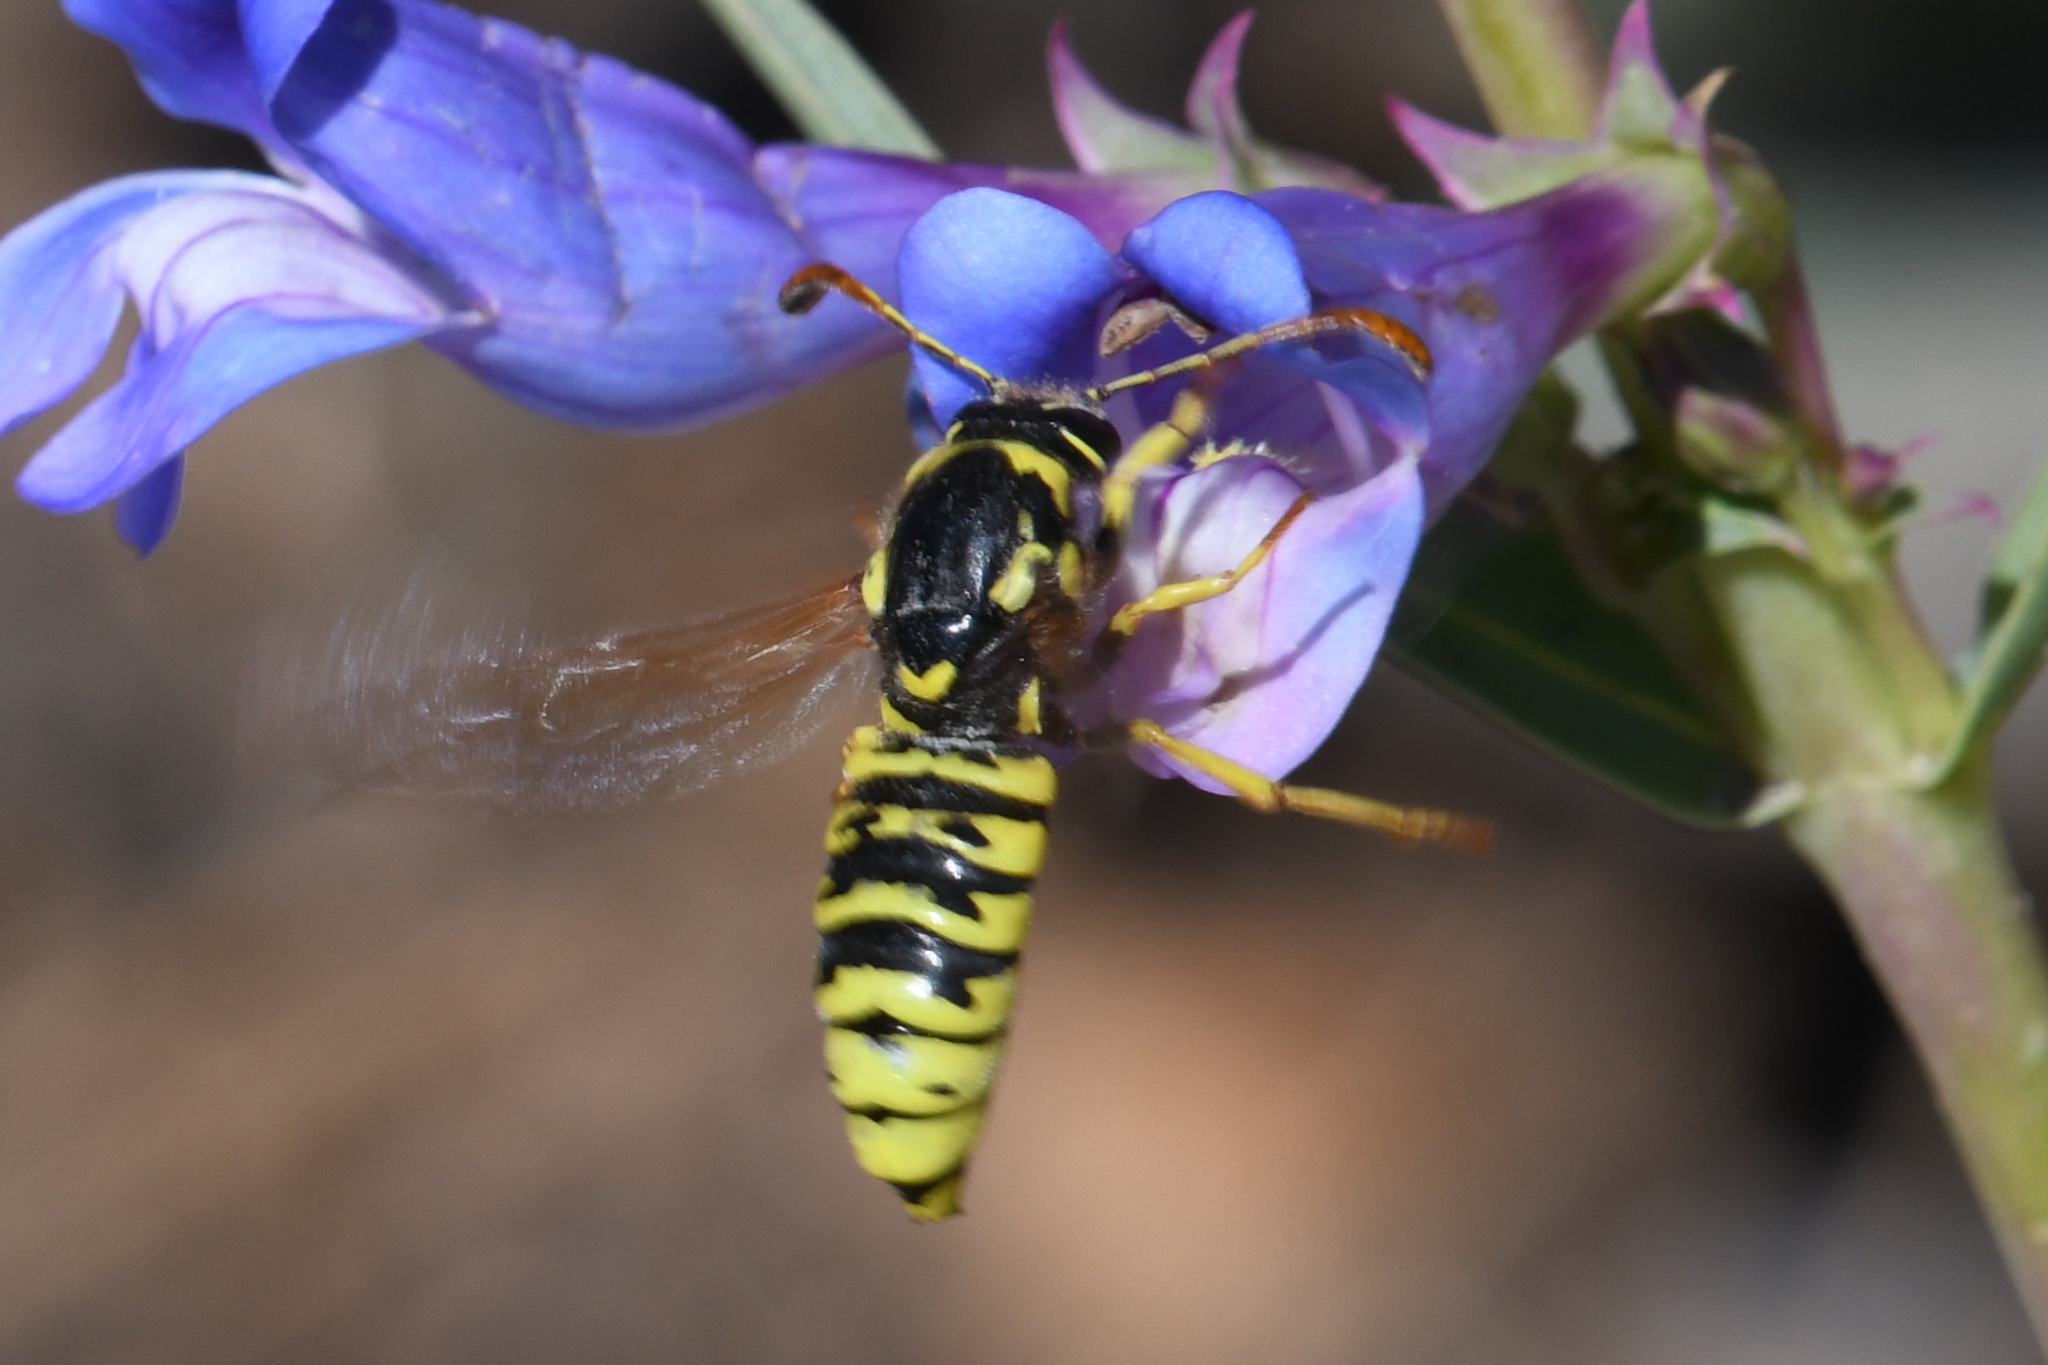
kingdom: Animalia
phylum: Arthropoda
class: Insecta
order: Hymenoptera
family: Masaridae
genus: Pseudomasaris
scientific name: Pseudomasaris vespoides
